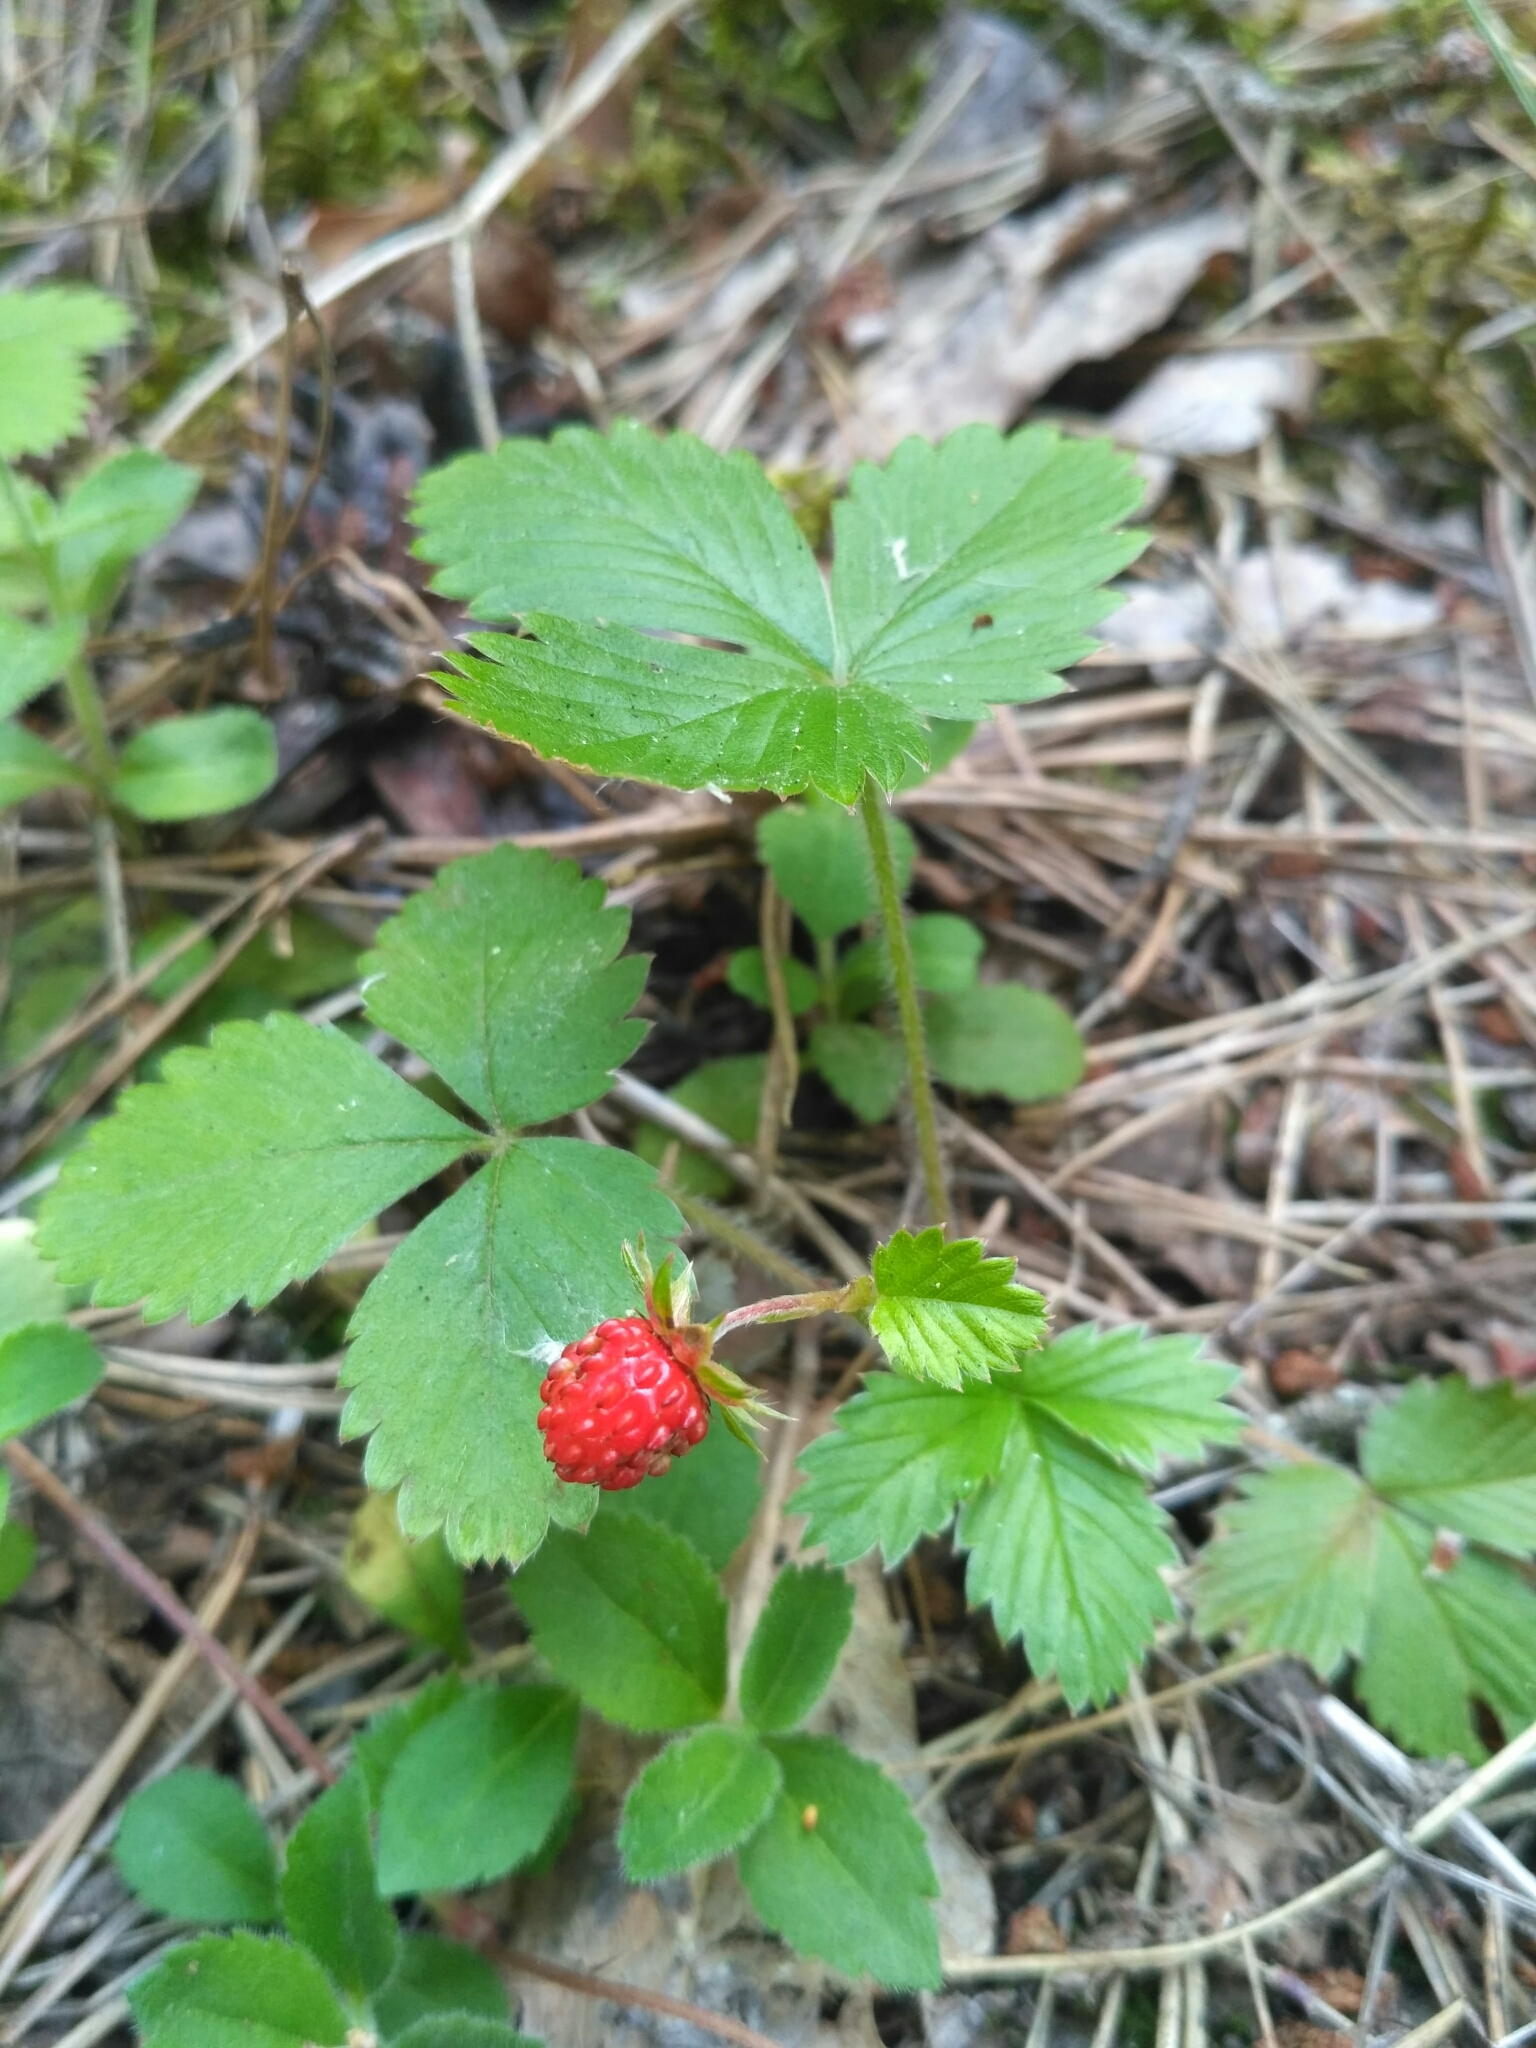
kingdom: Plantae
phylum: Tracheophyta
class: Magnoliopsida
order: Rosales
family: Rosaceae
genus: Fragaria
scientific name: Fragaria vesca
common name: Wild strawberry
